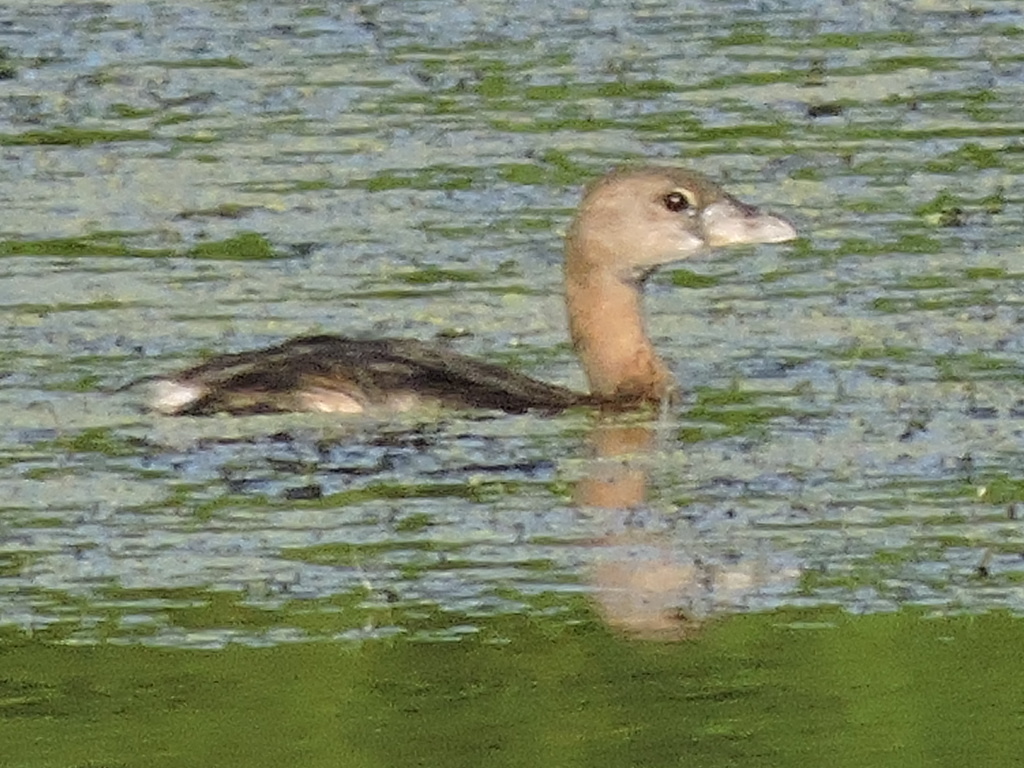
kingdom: Animalia
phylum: Chordata
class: Aves
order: Podicipediformes
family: Podicipedidae
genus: Podilymbus
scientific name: Podilymbus podiceps
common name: Pied-billed grebe
